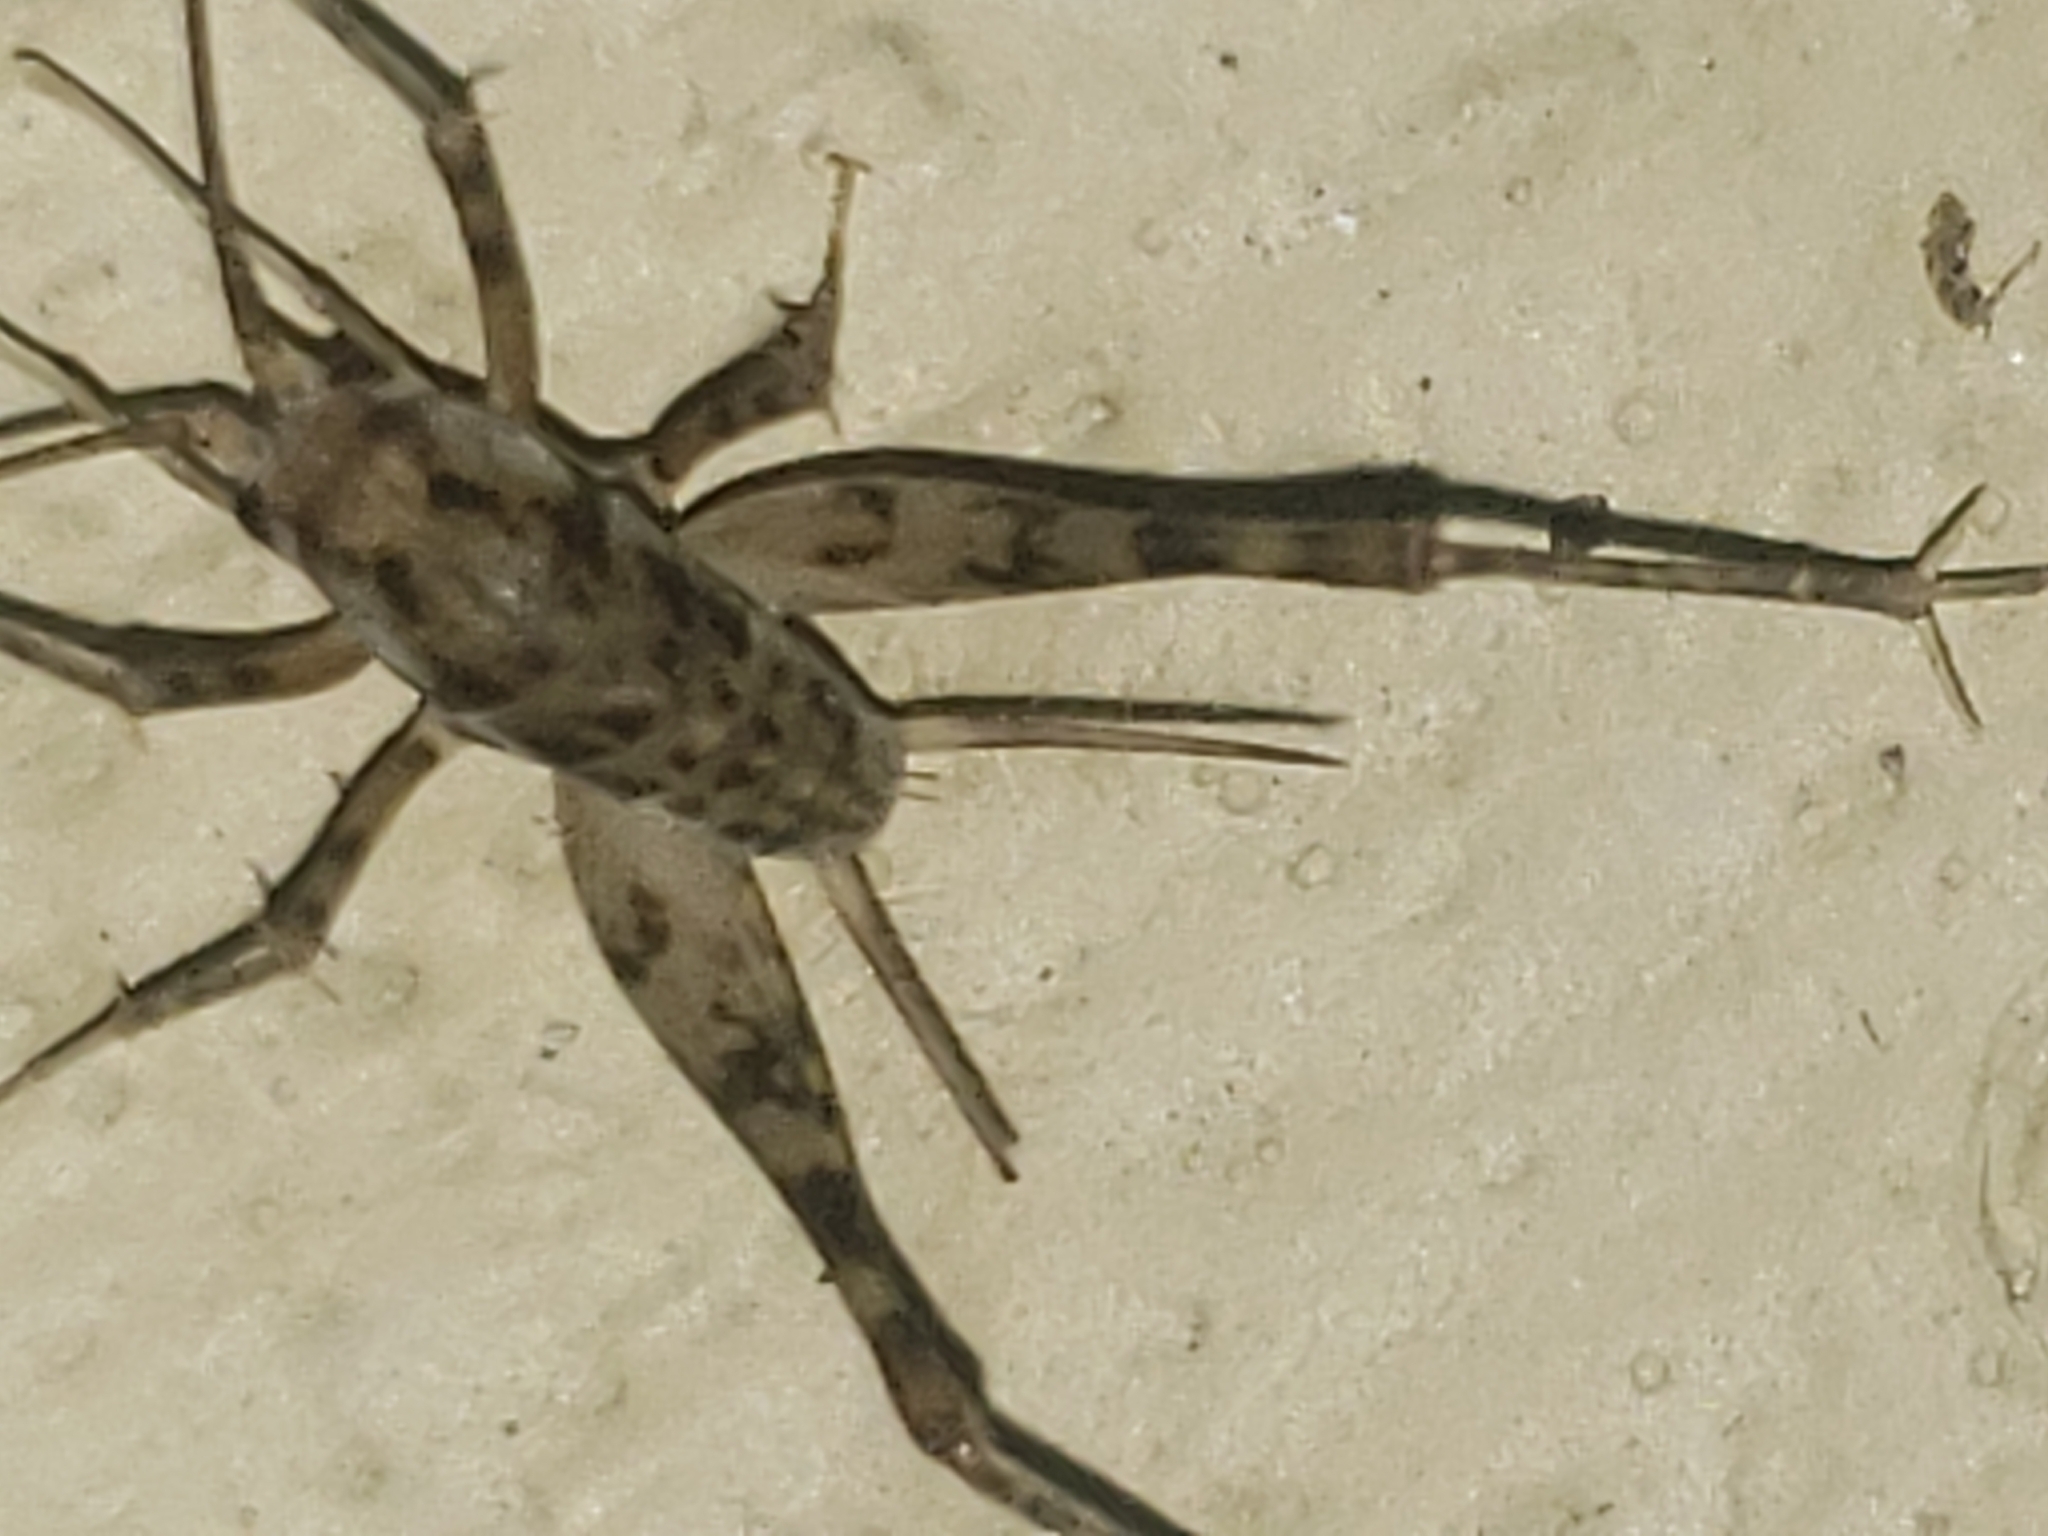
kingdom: Animalia
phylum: Arthropoda
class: Insecta
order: Orthoptera
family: Rhaphidophoridae
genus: Tachycines
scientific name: Tachycines asynamorus
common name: Greenhouse camel cricket
